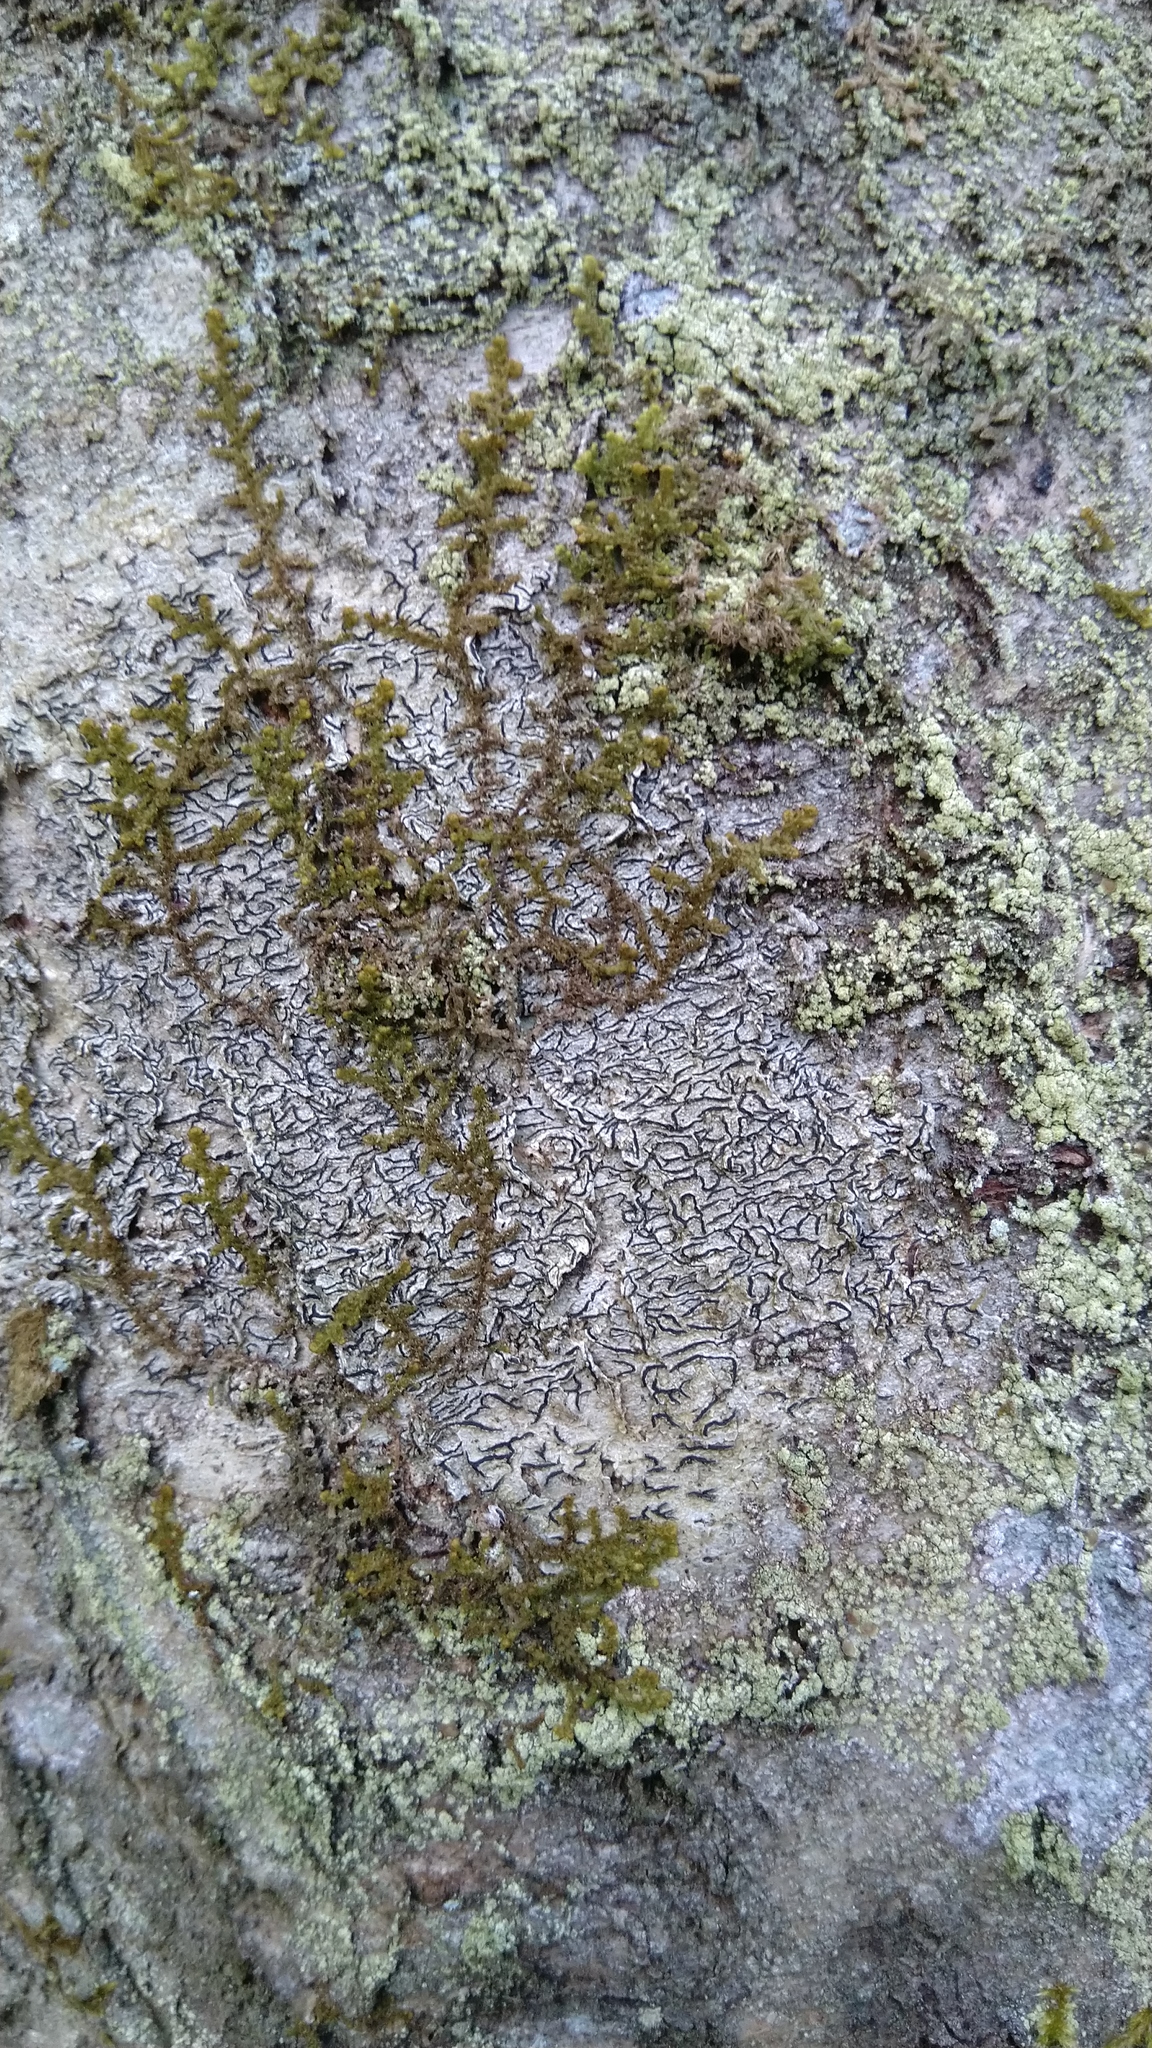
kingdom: Fungi
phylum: Ascomycota
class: Lecanoromycetes
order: Ostropales
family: Graphidaceae
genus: Graphis
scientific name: Graphis scripta
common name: Script lichen
